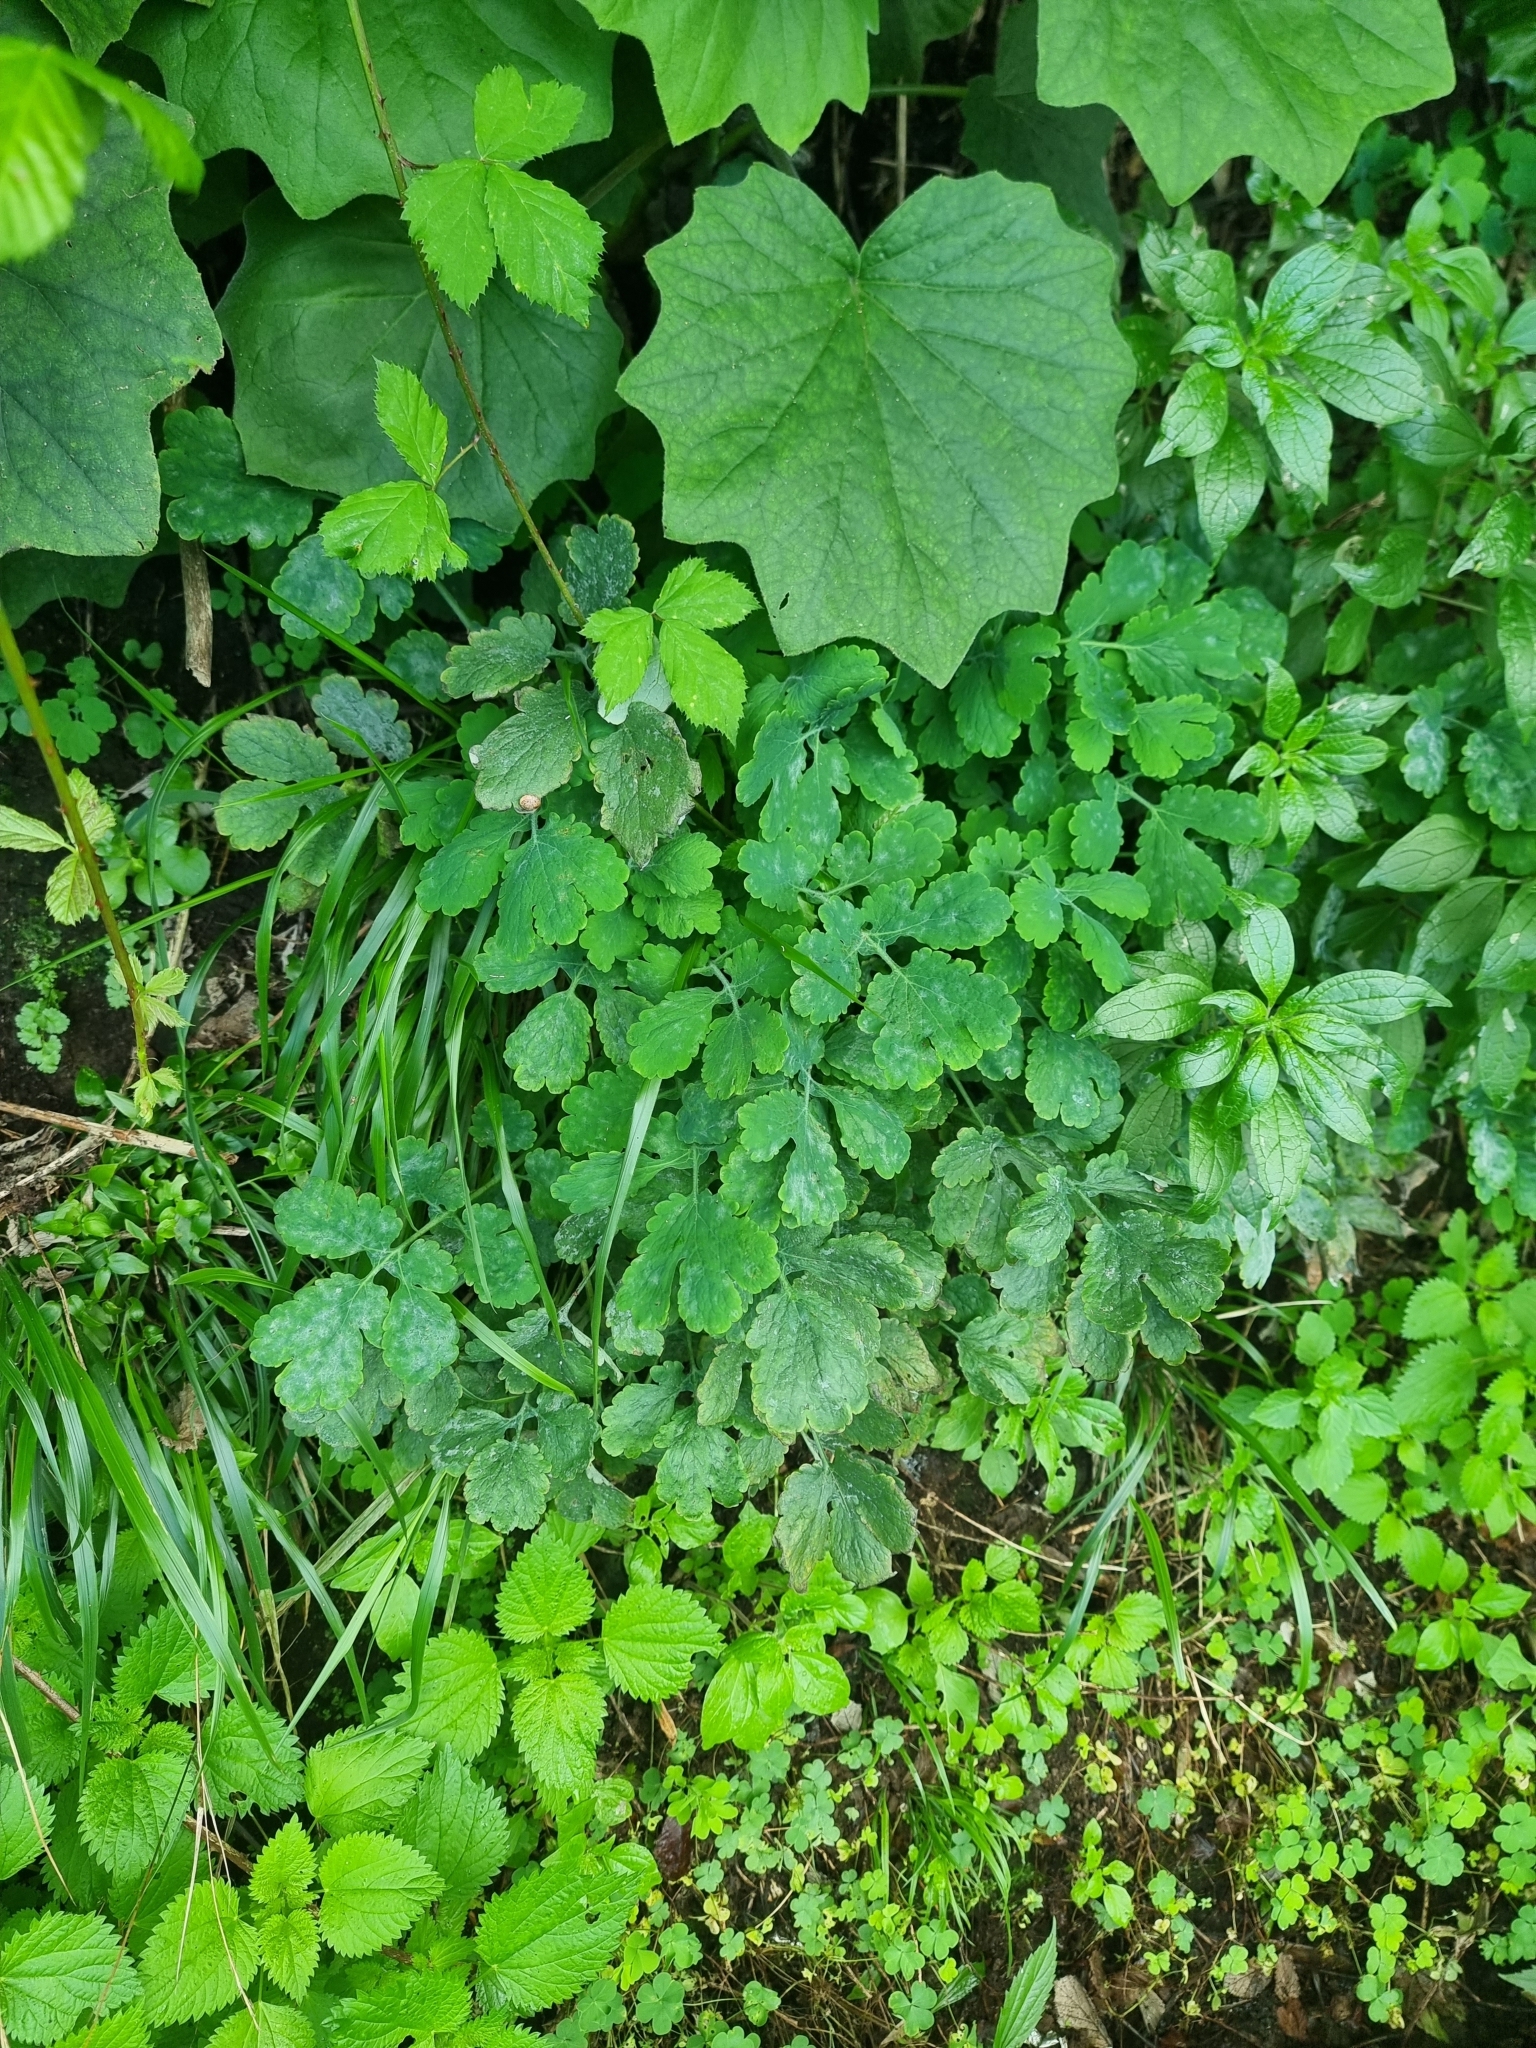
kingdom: Plantae
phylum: Tracheophyta
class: Magnoliopsida
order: Ranunculales
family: Papaveraceae
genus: Chelidonium
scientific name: Chelidonium majus
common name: Greater celandine
